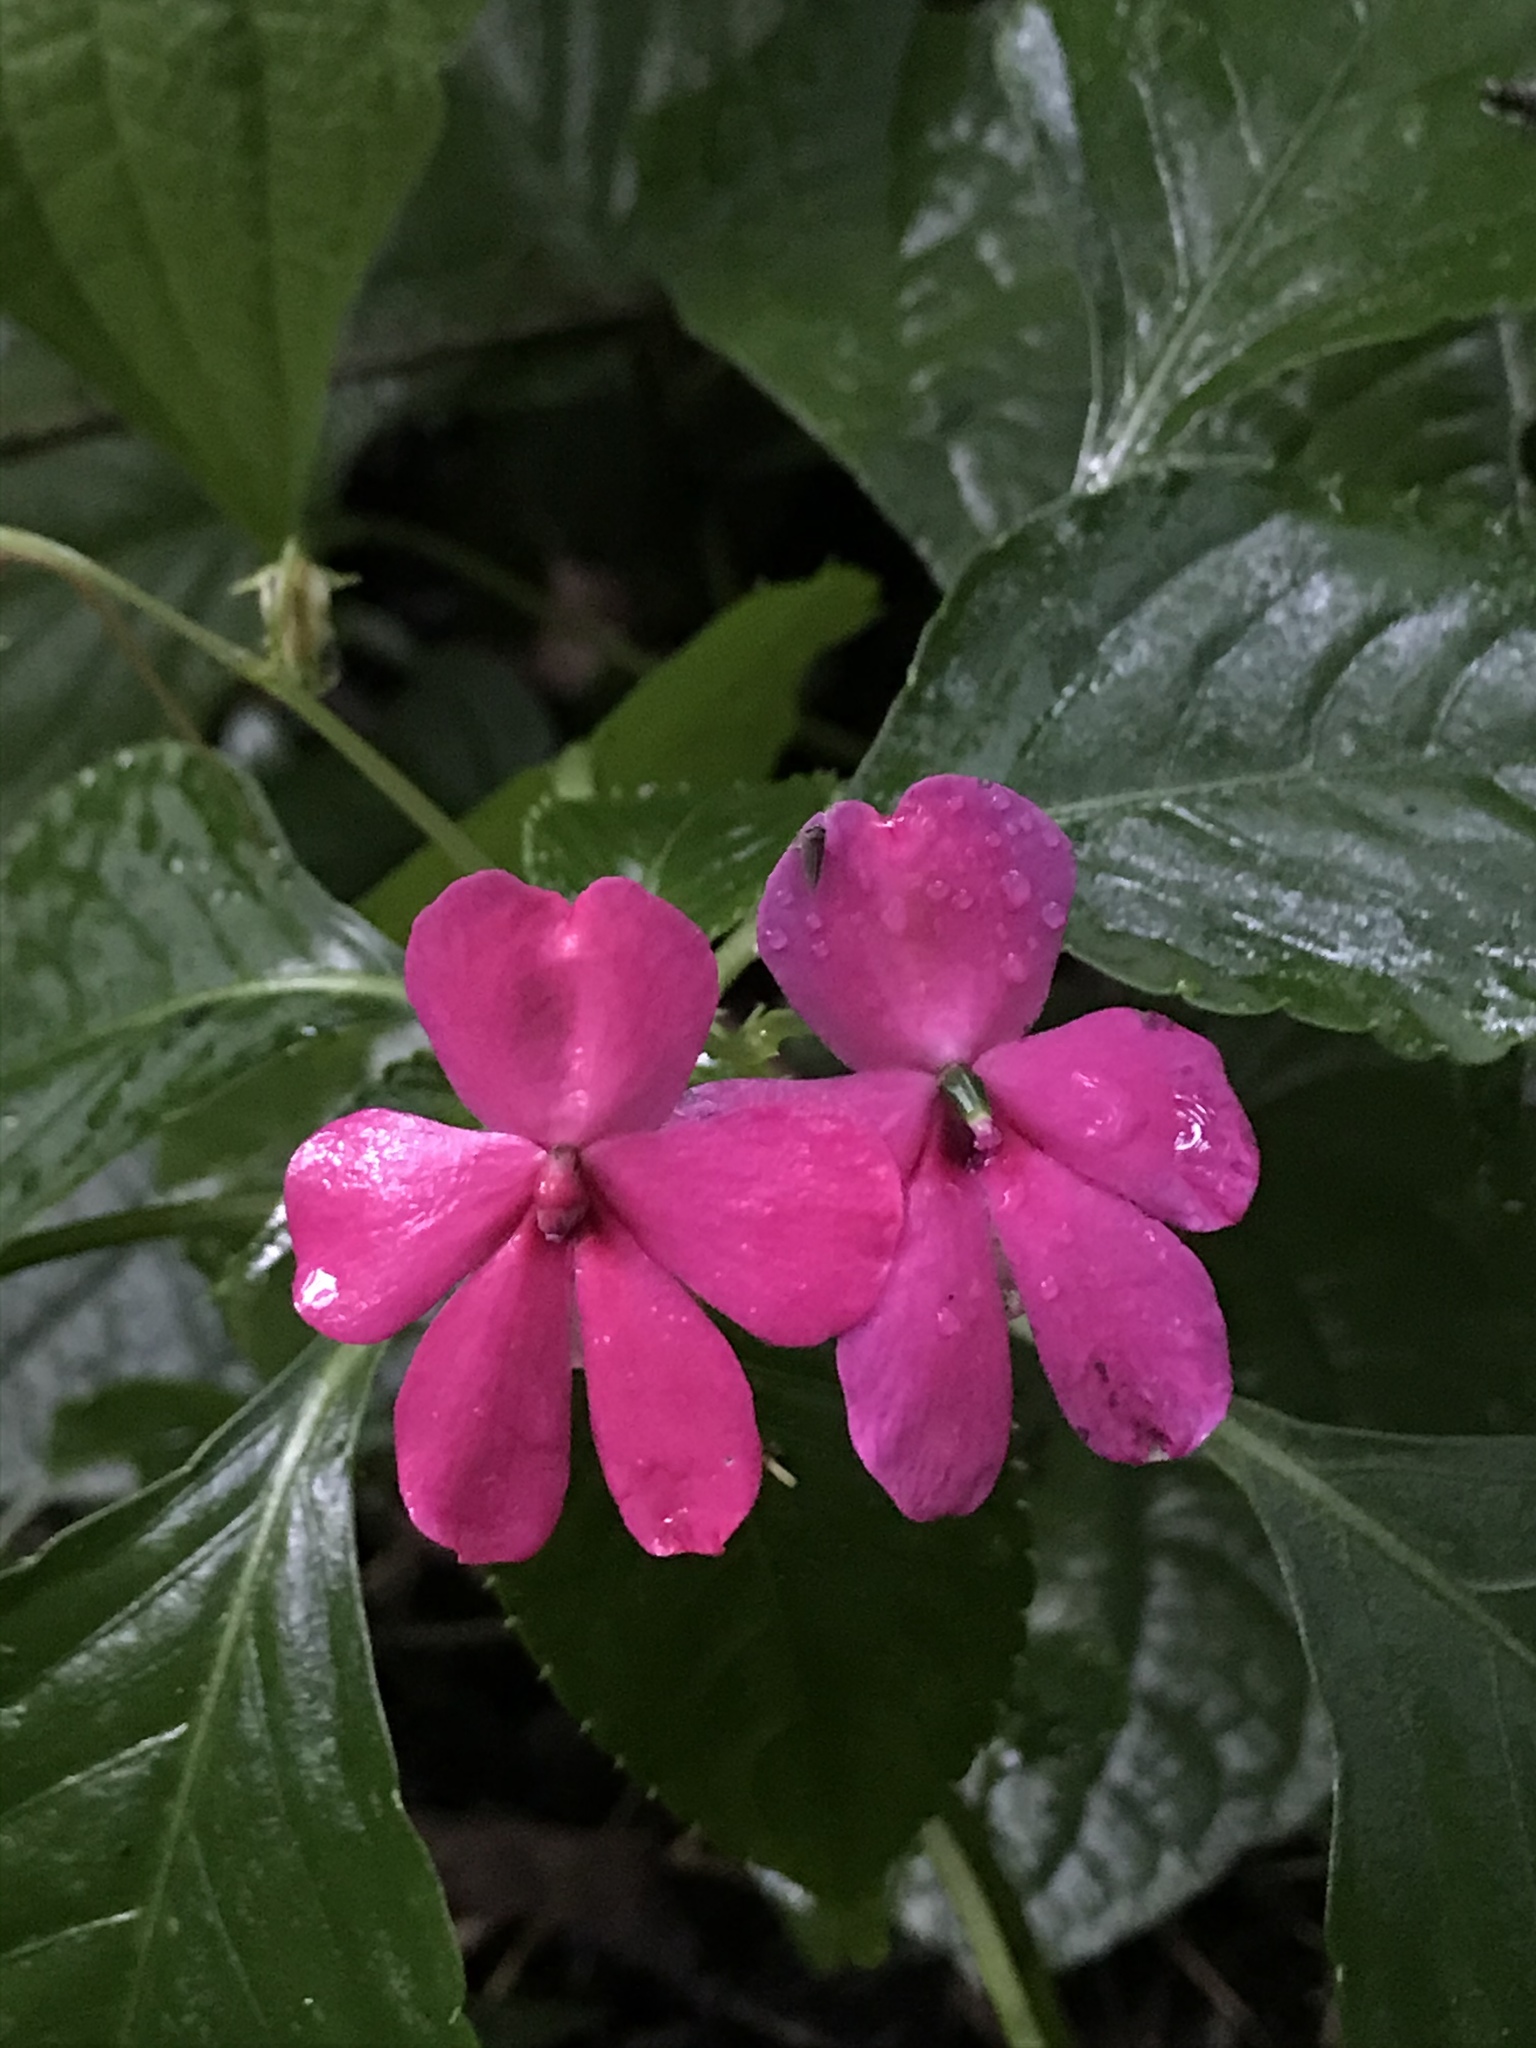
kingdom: Plantae
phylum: Tracheophyta
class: Magnoliopsida
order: Ericales
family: Balsaminaceae
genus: Impatiens
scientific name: Impatiens walleriana
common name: Buzzy lizzy
